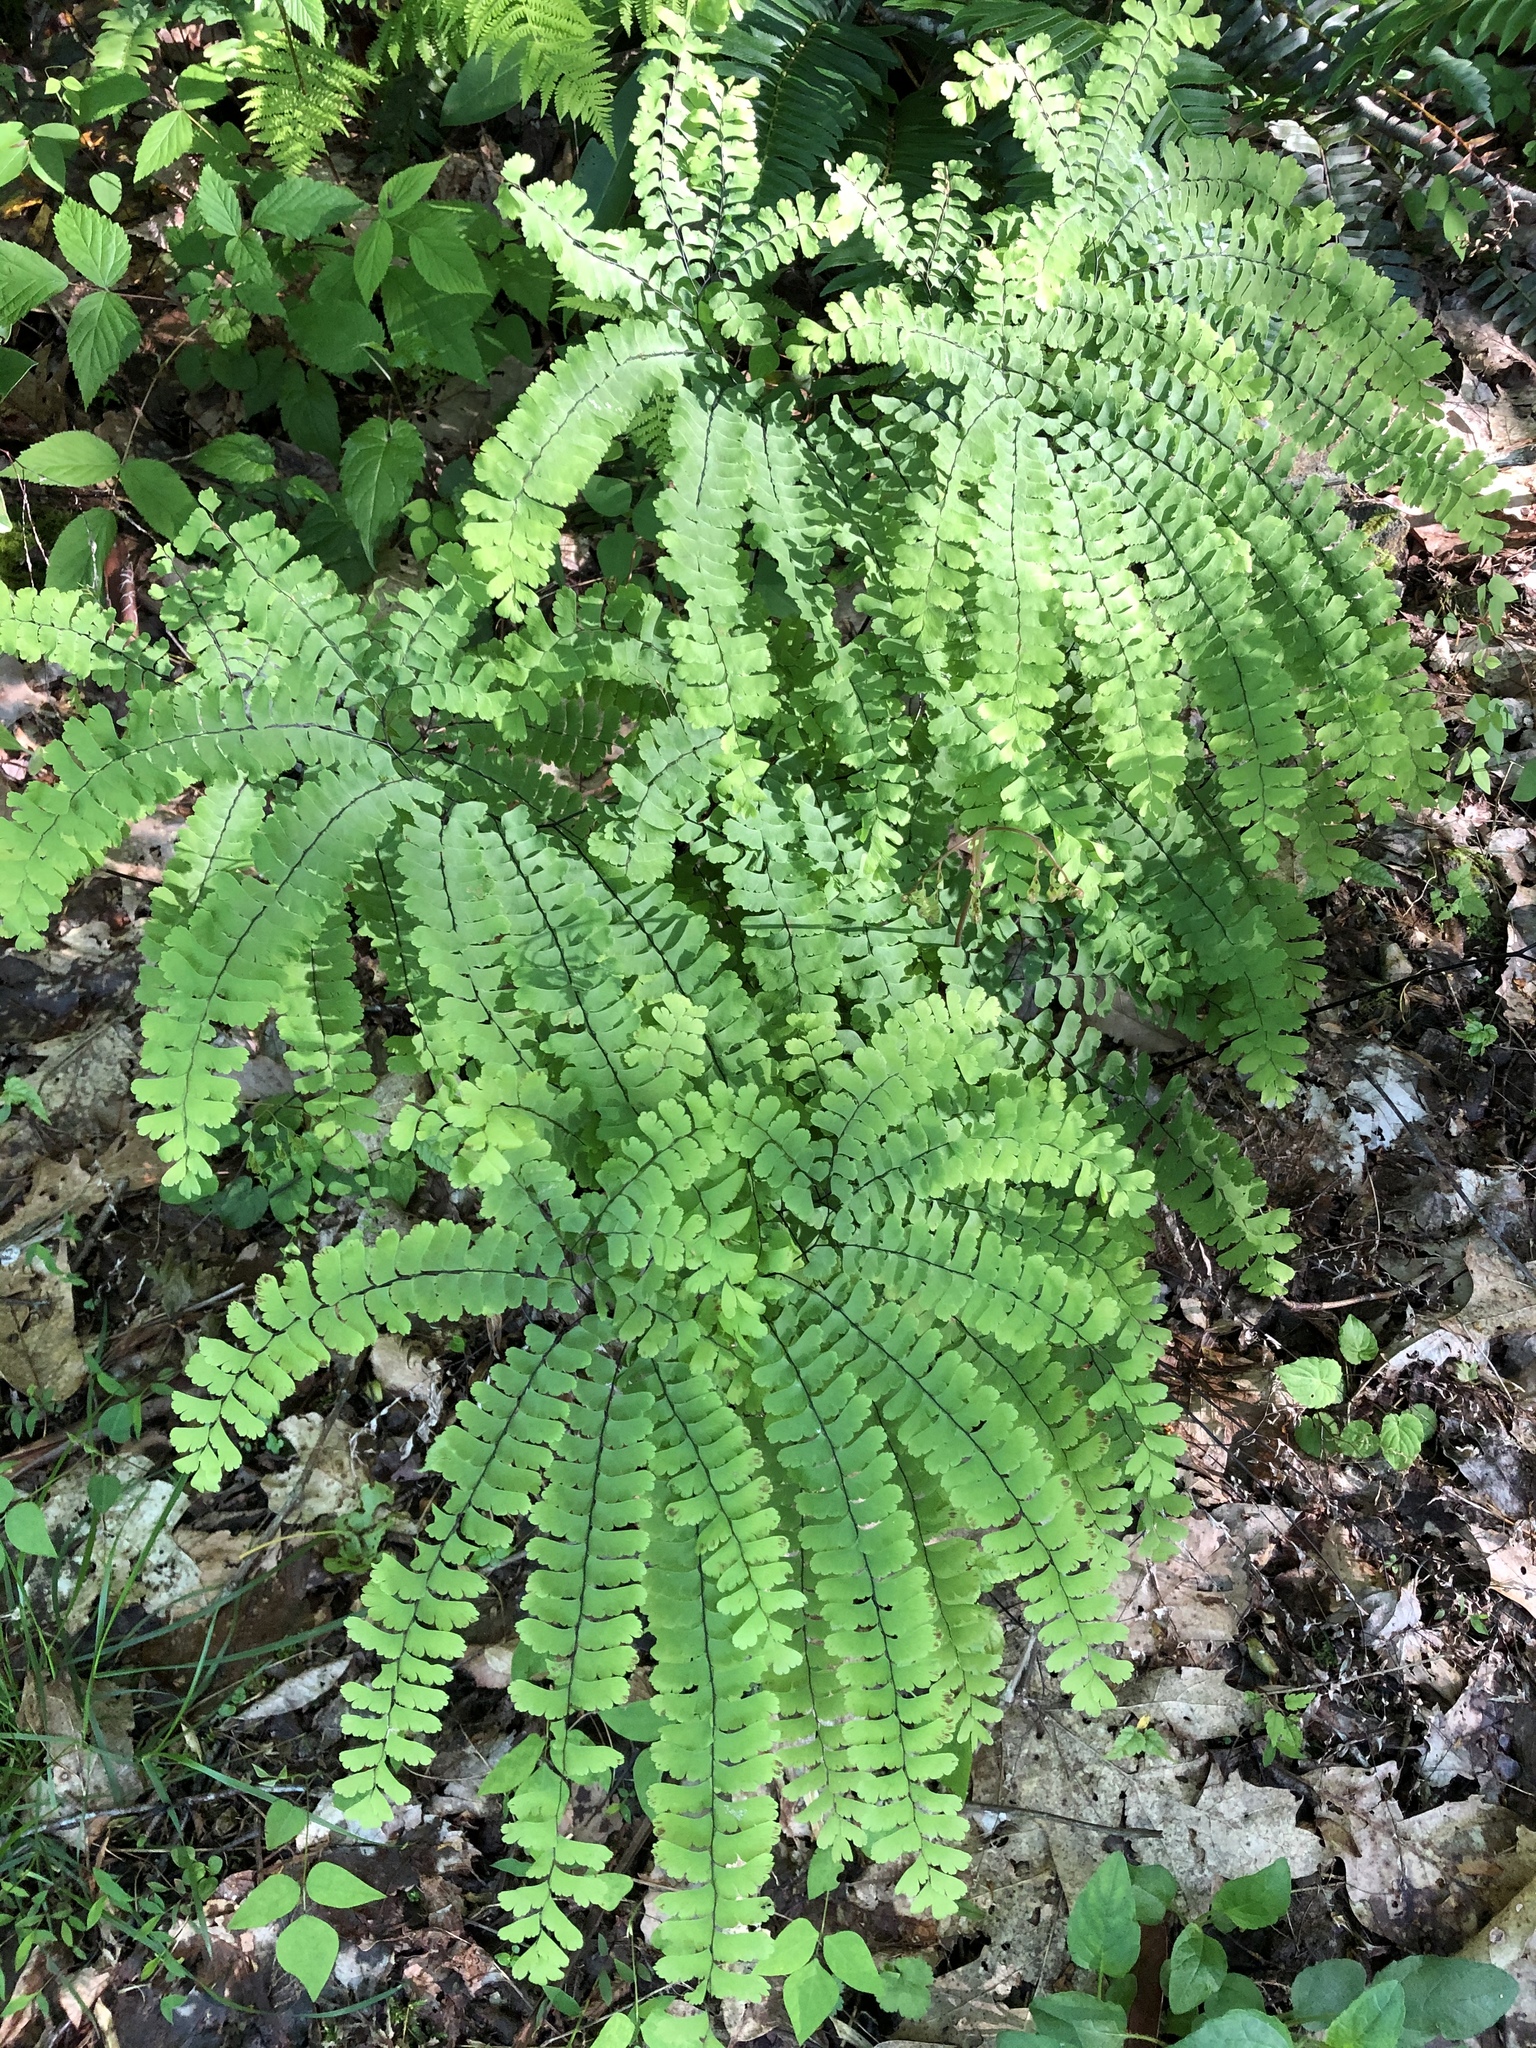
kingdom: Plantae
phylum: Tracheophyta
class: Polypodiopsida
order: Polypodiales
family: Pteridaceae
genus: Adiantum
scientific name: Adiantum pedatum
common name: Five-finger fern
